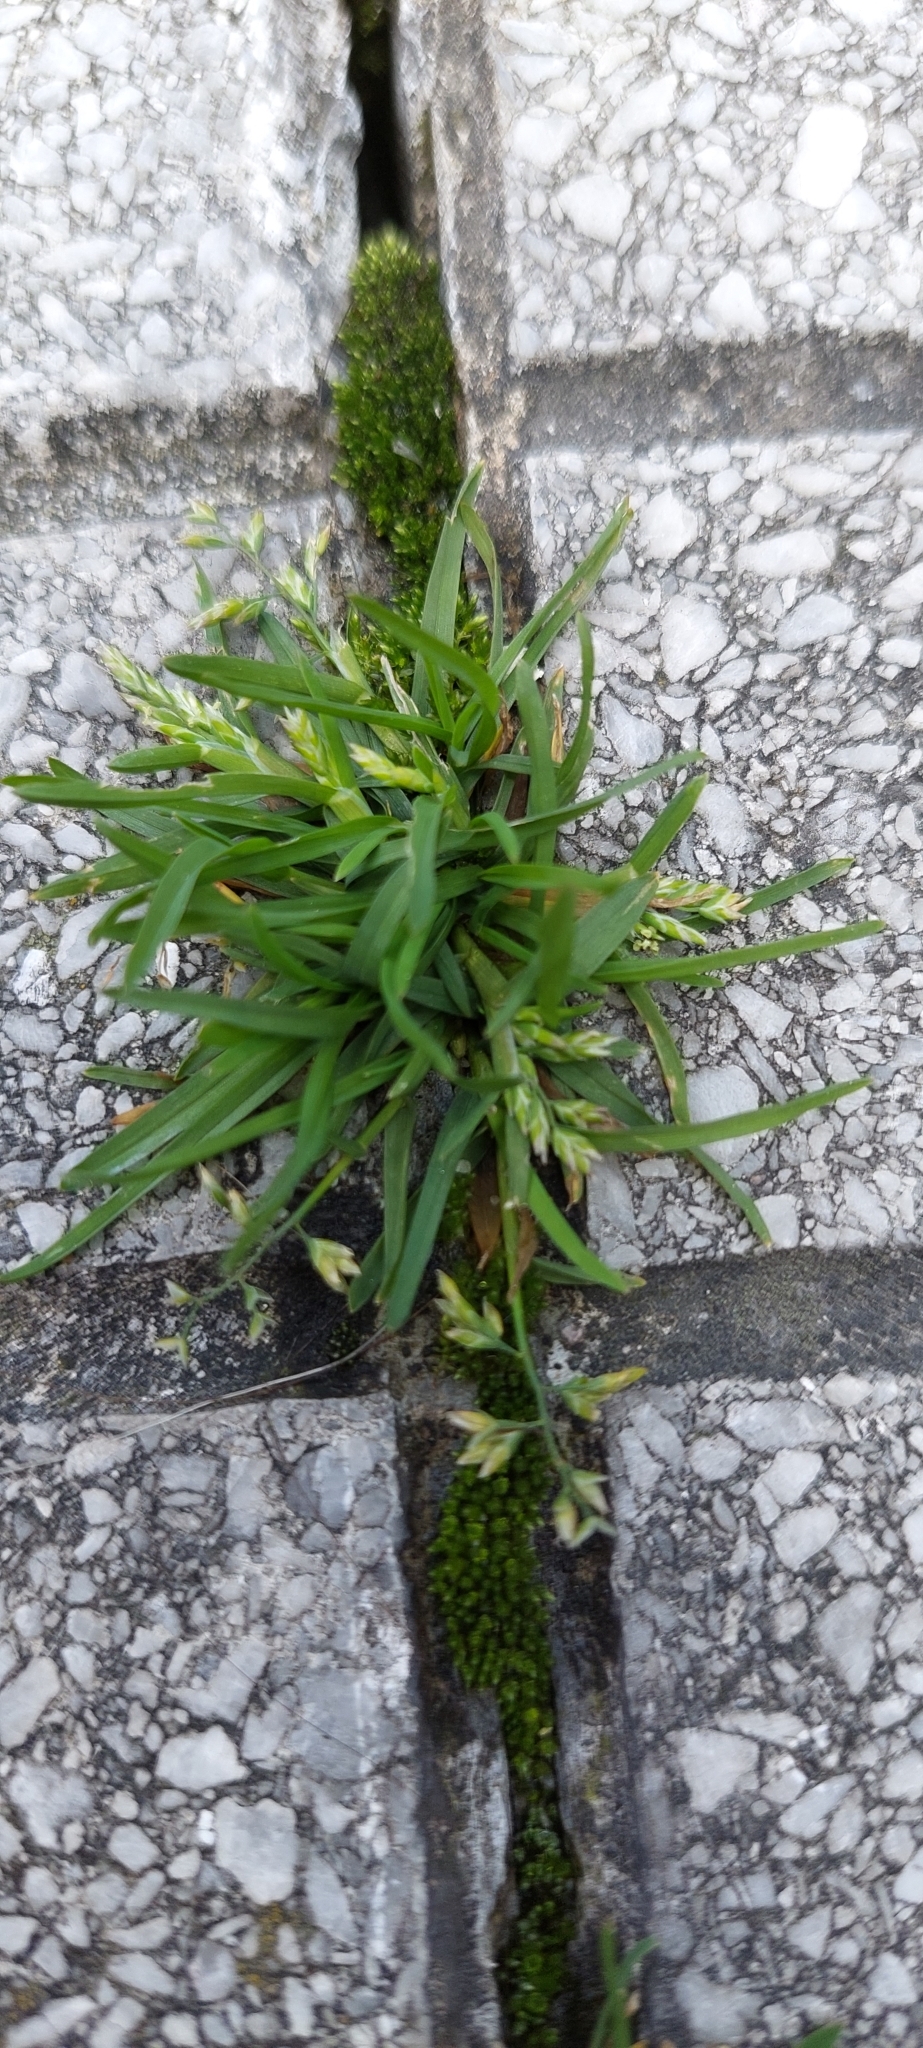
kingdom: Plantae
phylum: Tracheophyta
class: Liliopsida
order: Poales
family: Poaceae
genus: Poa
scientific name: Poa annua
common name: Annual bluegrass
